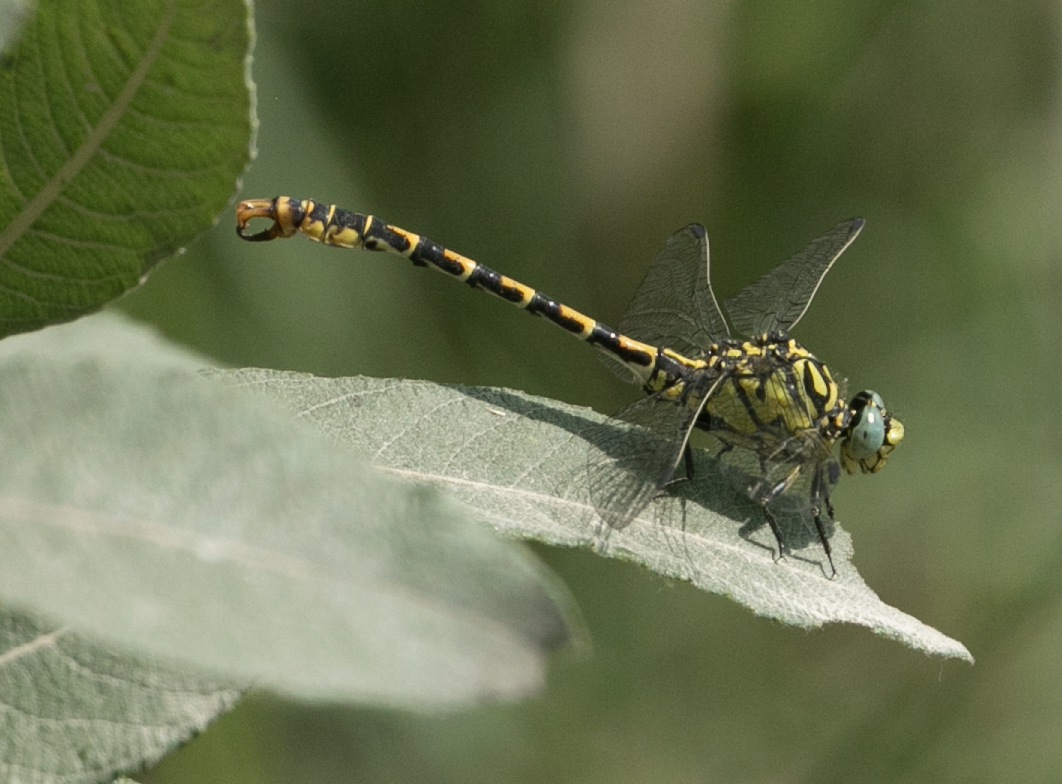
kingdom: Animalia
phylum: Arthropoda
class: Insecta
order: Odonata
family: Gomphidae
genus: Onychogomphus
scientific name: Onychogomphus forcipatus
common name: Small pincertail
